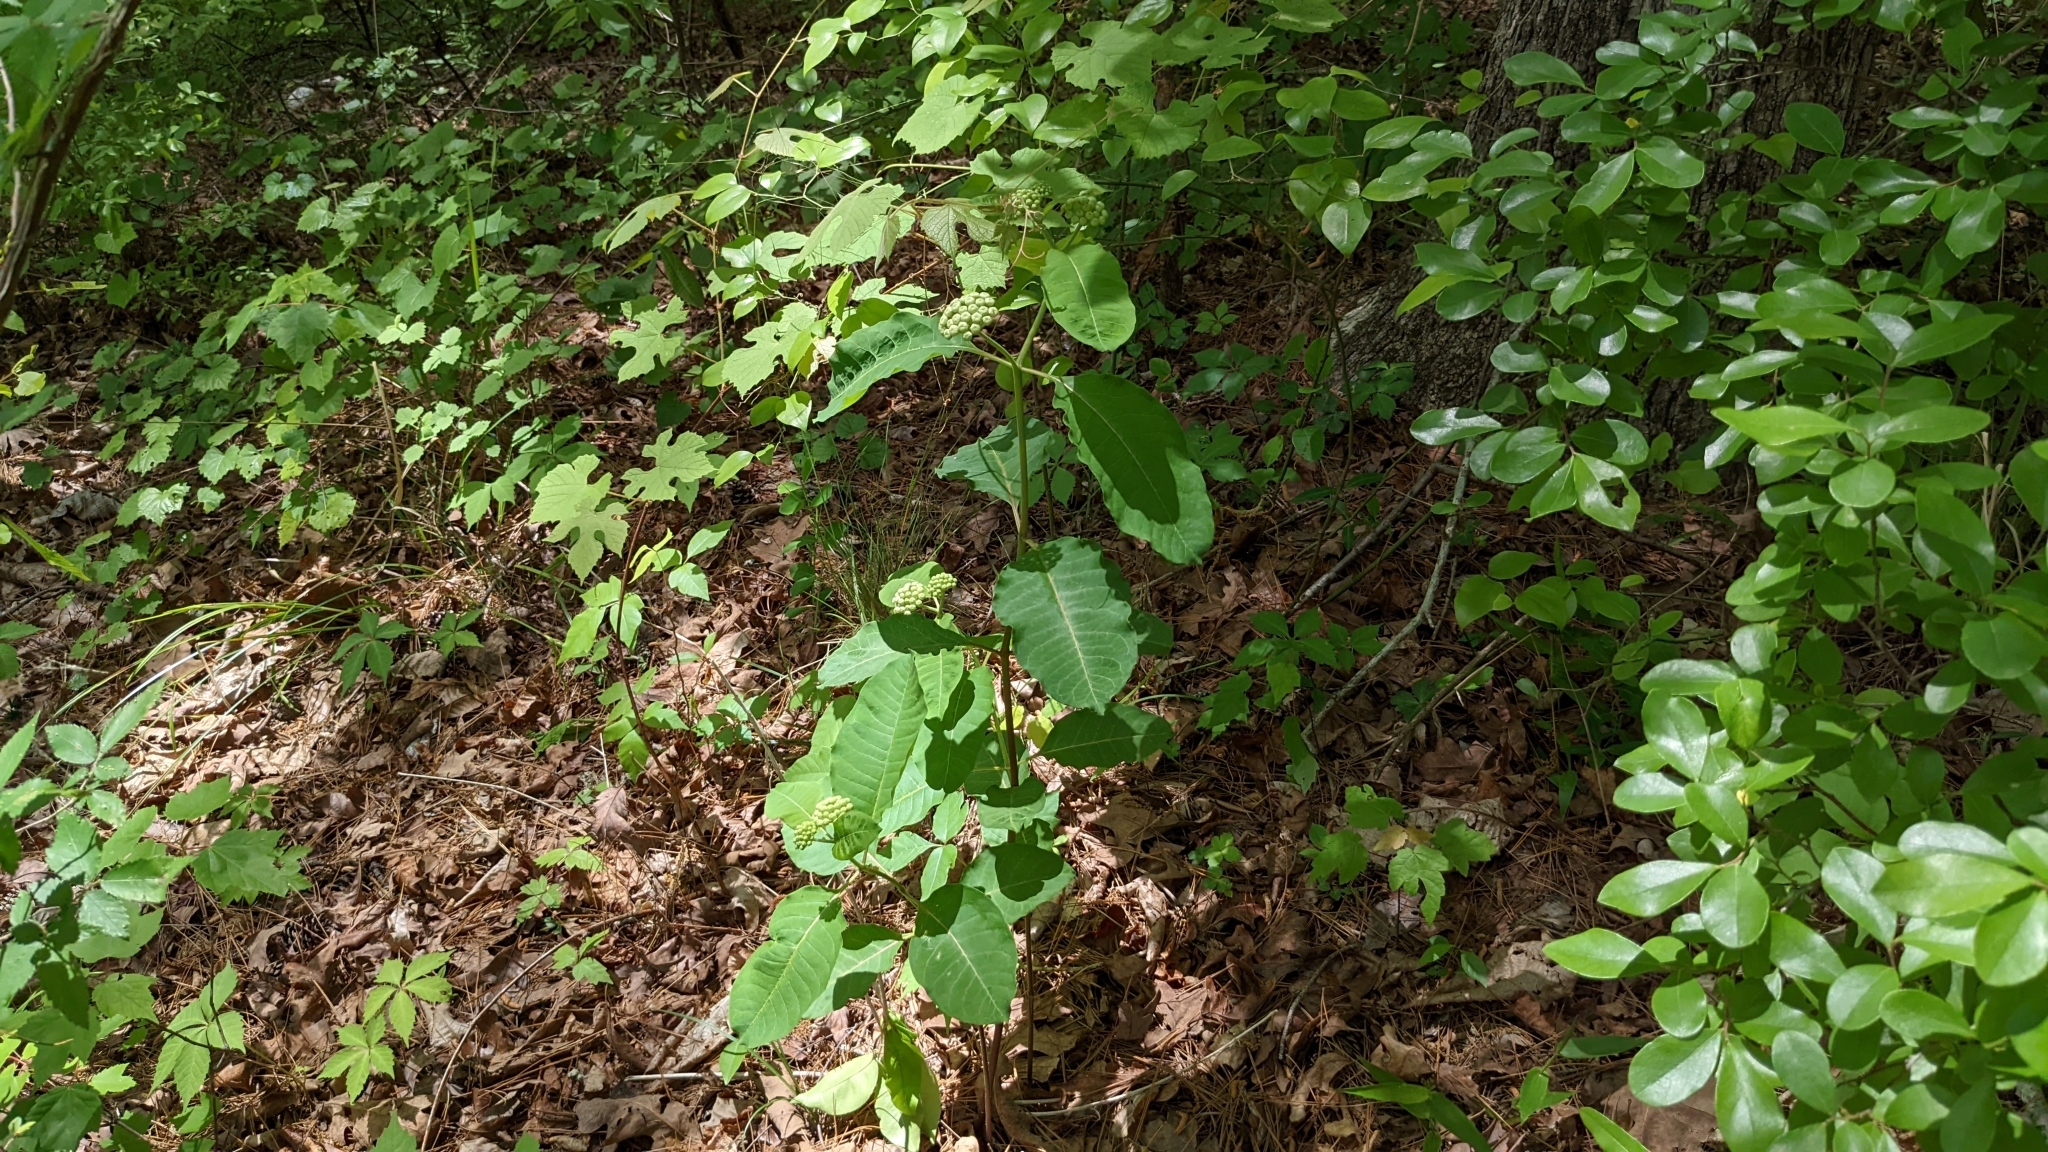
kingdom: Plantae
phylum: Tracheophyta
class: Magnoliopsida
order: Gentianales
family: Apocynaceae
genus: Asclepias
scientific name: Asclepias variegata
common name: Variegated milkweed
